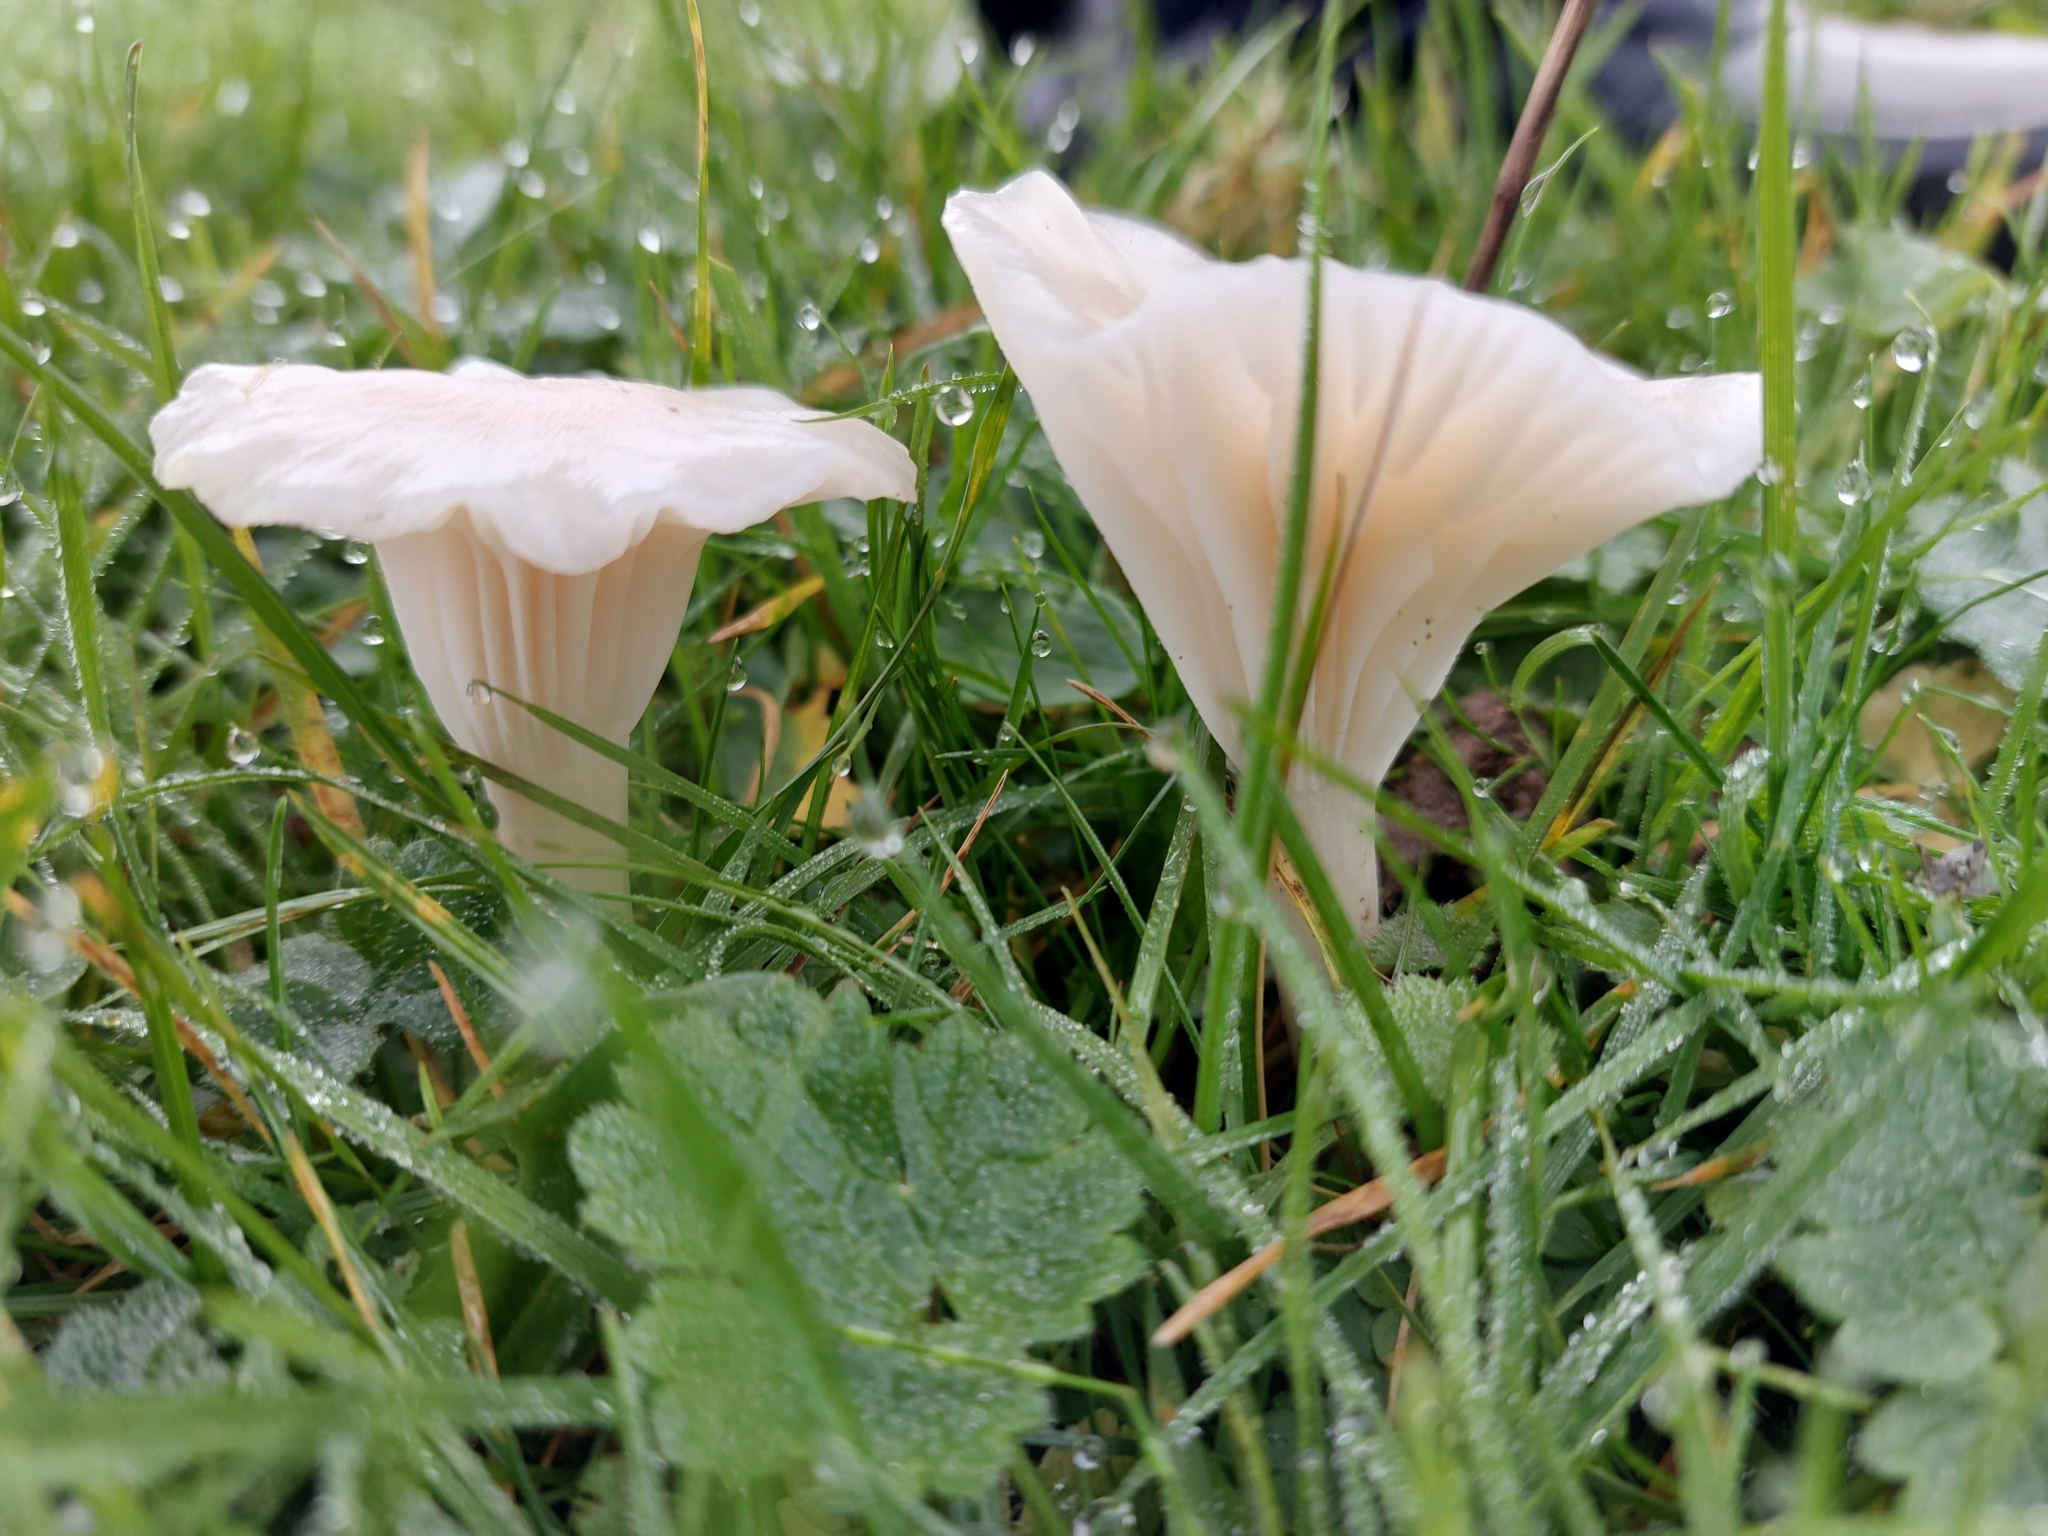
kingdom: Fungi
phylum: Basidiomycota
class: Agaricomycetes
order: Agaricales
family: Hygrophoraceae
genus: Cuphophyllus
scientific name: Cuphophyllus virgineus
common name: Snowy waxcap
